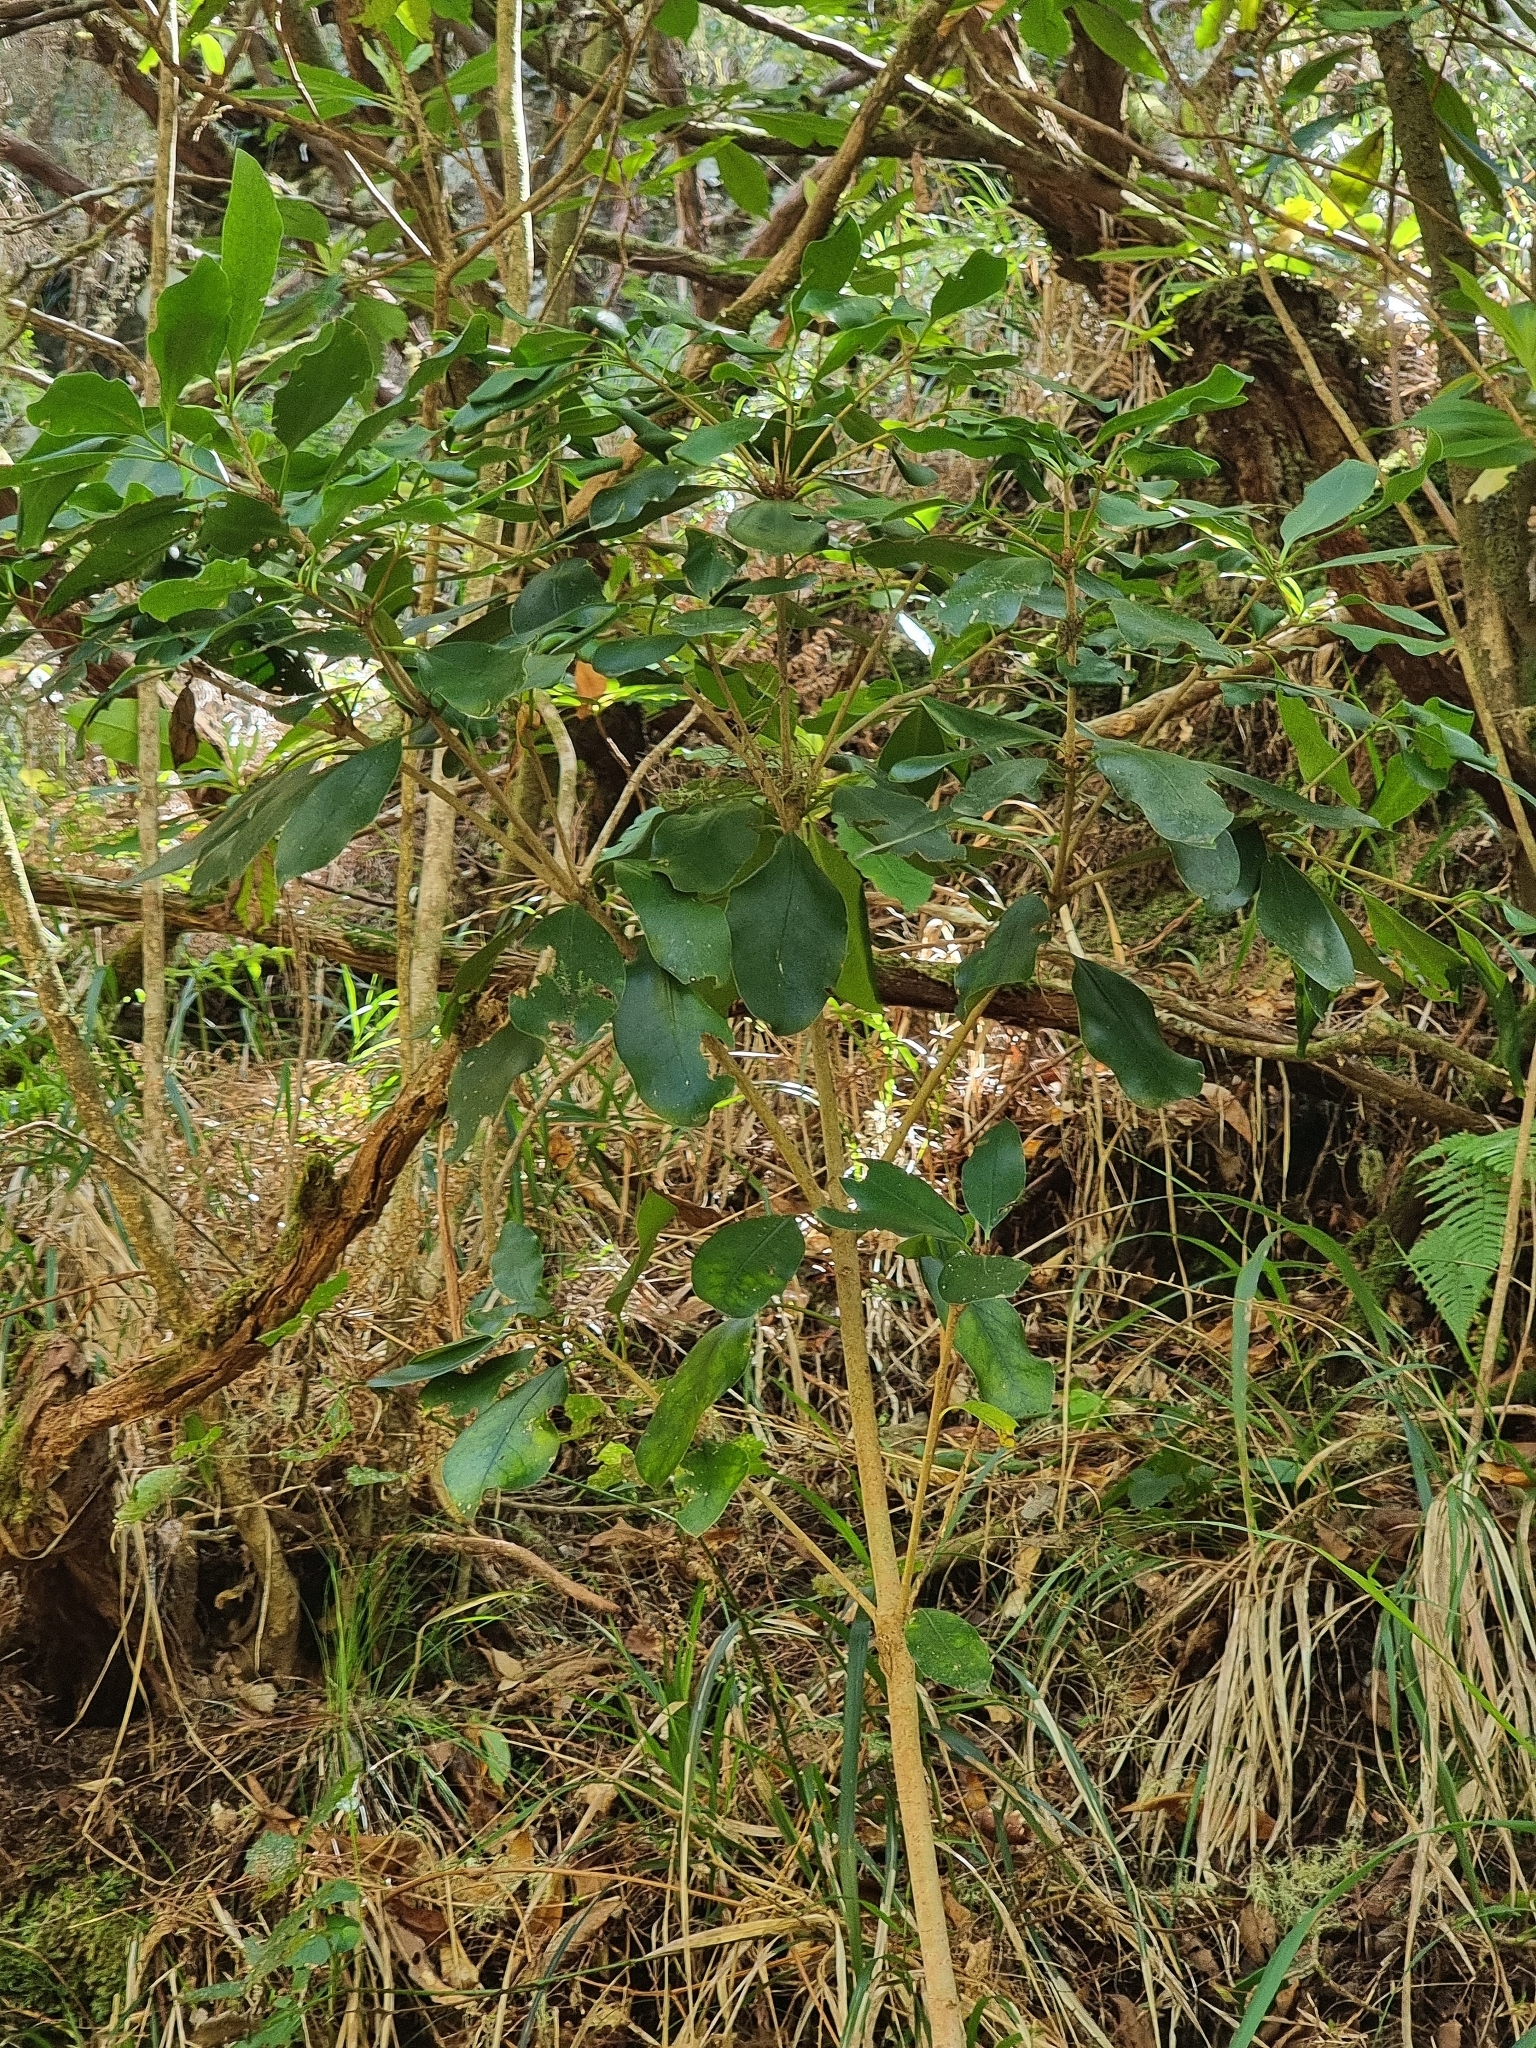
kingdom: Plantae
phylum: Tracheophyta
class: Magnoliopsida
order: Apiales
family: Pittosporaceae
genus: Pittosporum
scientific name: Pittosporum coriaceum
